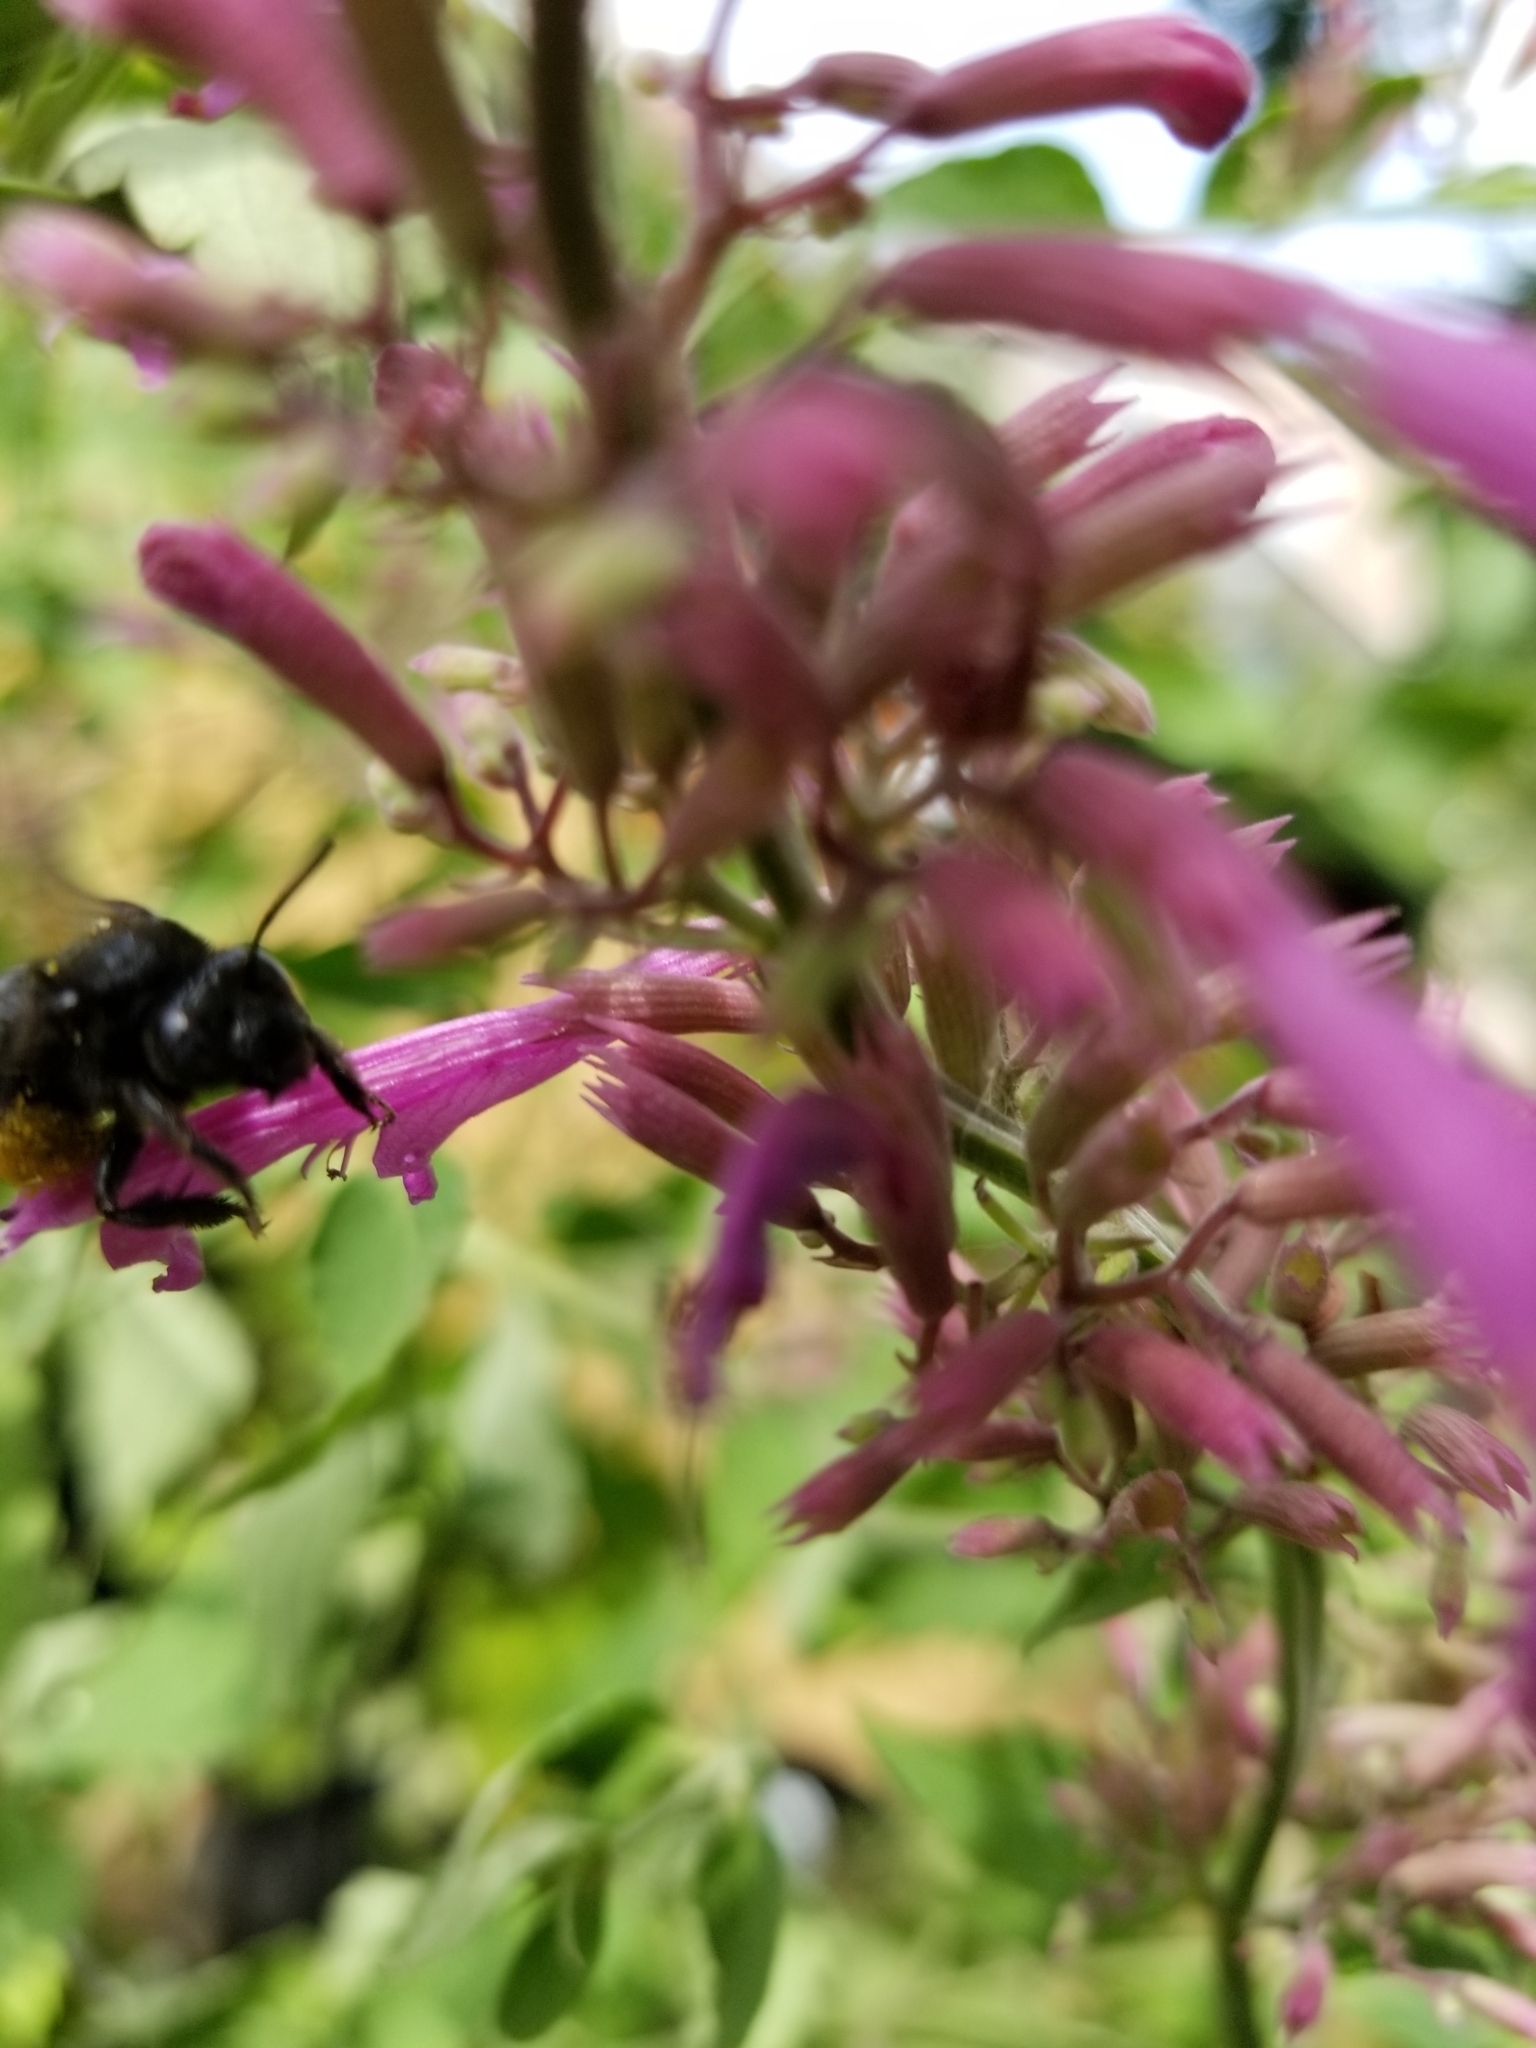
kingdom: Animalia
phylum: Arthropoda
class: Insecta
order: Hymenoptera
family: Apidae
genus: Melissodes
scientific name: Melissodes bimaculatus
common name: Two-spotted long-horned bee
